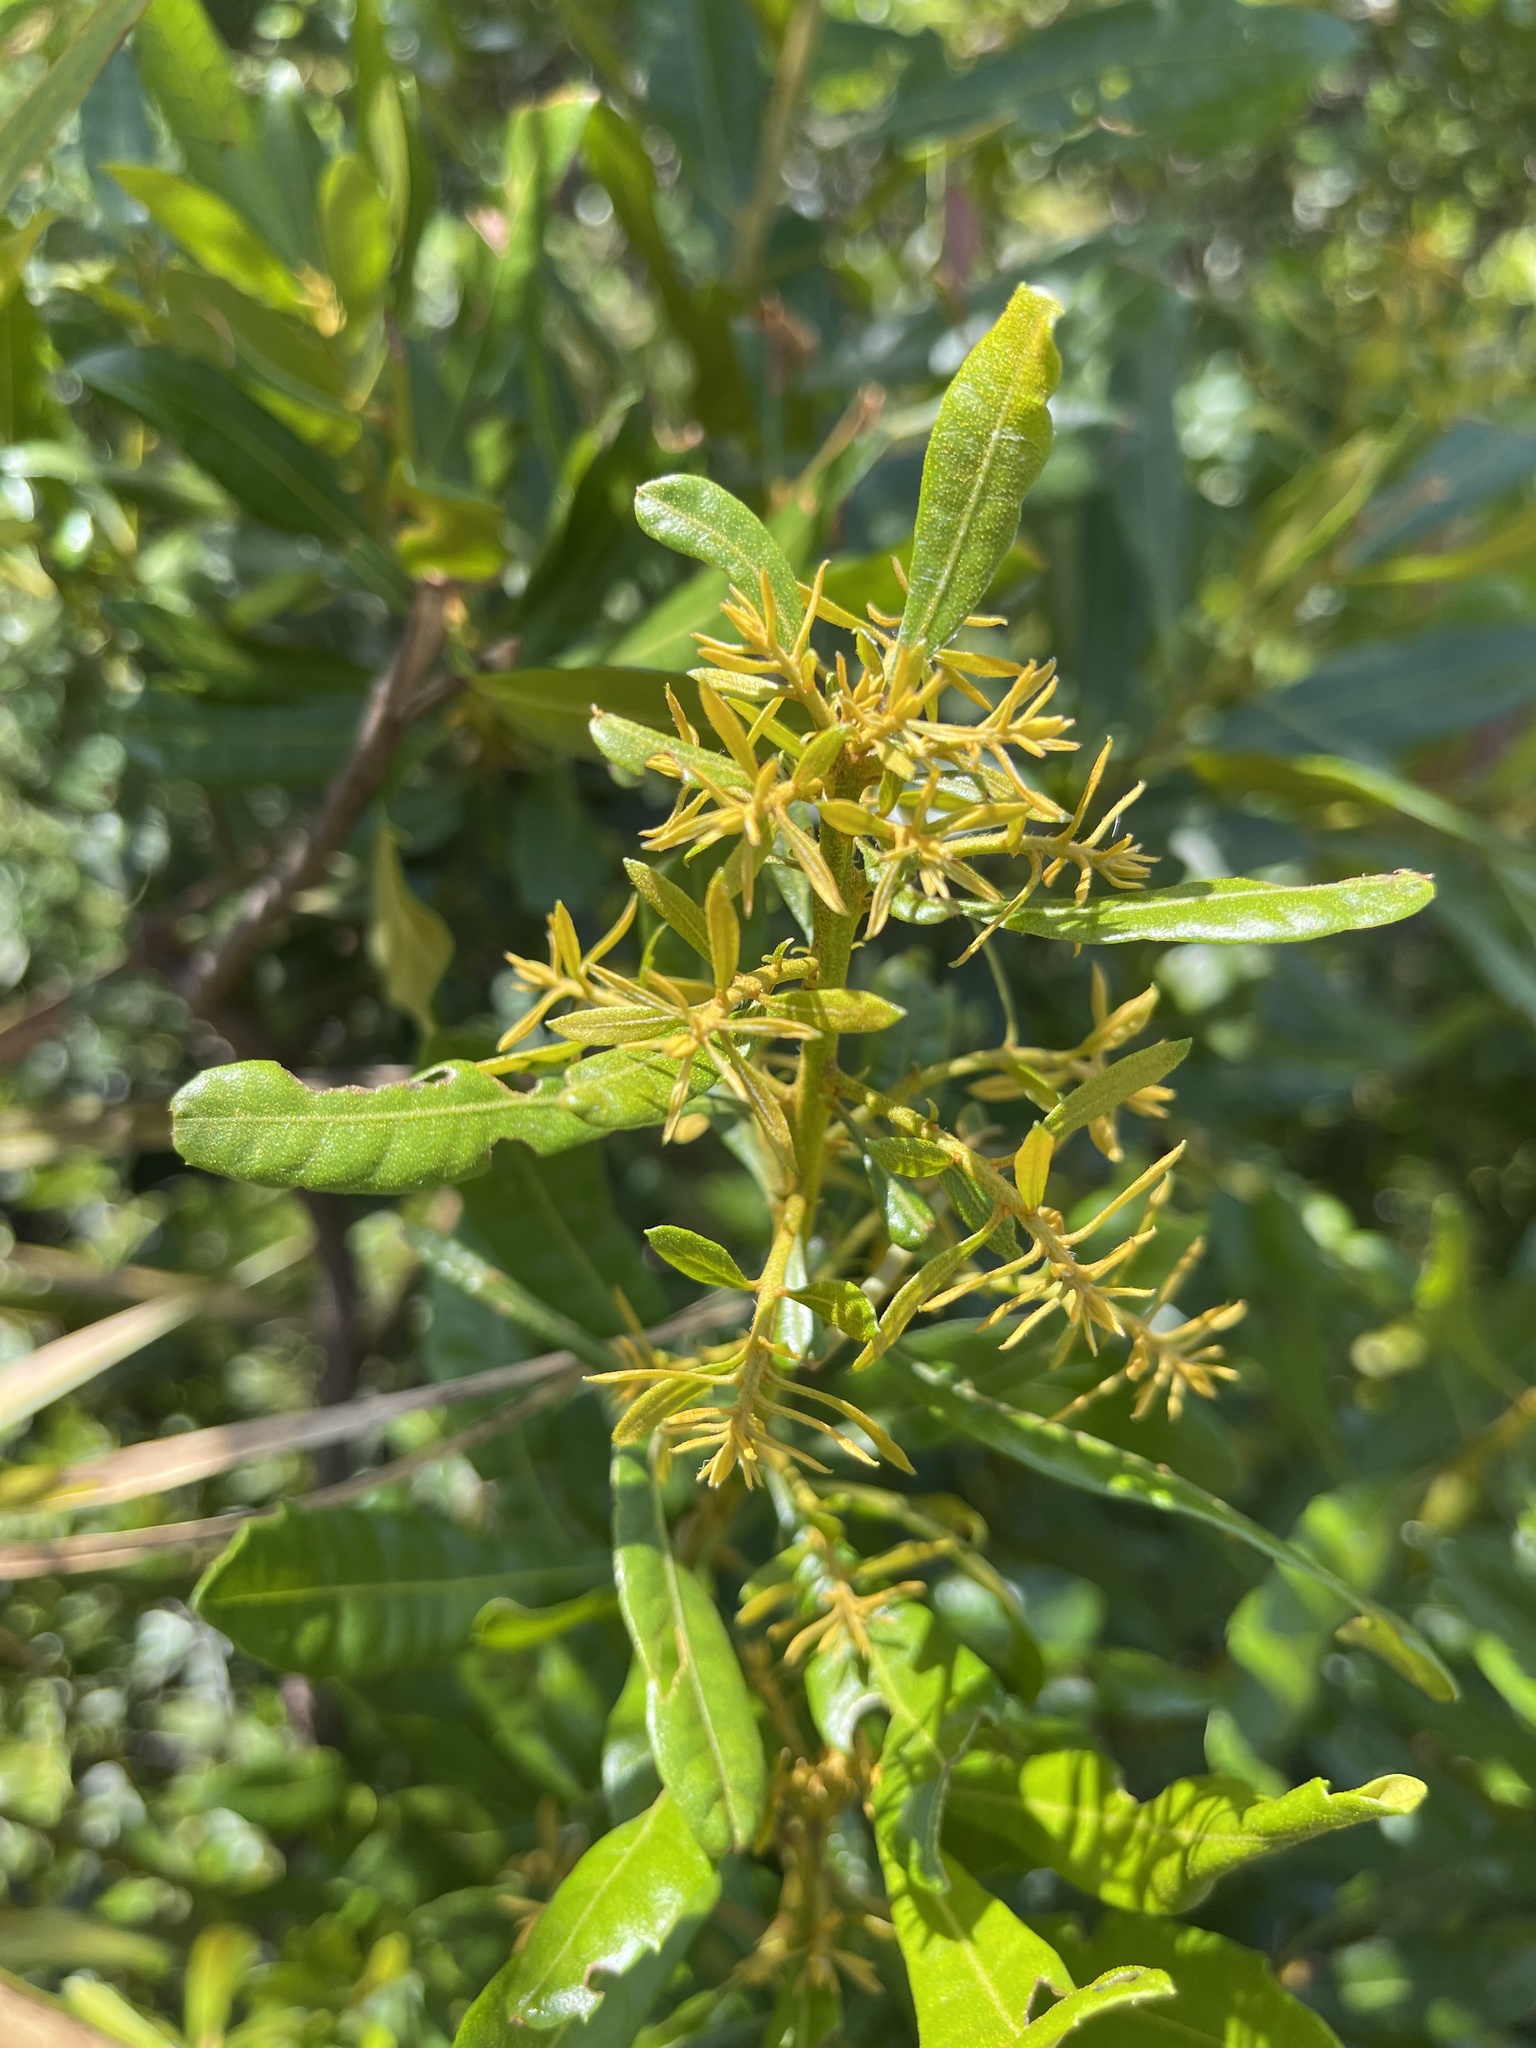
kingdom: Plantae
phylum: Tracheophyta
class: Magnoliopsida
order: Fagales
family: Myricaceae
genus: Morella
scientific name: Morella cerifera
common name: Wax myrtle
